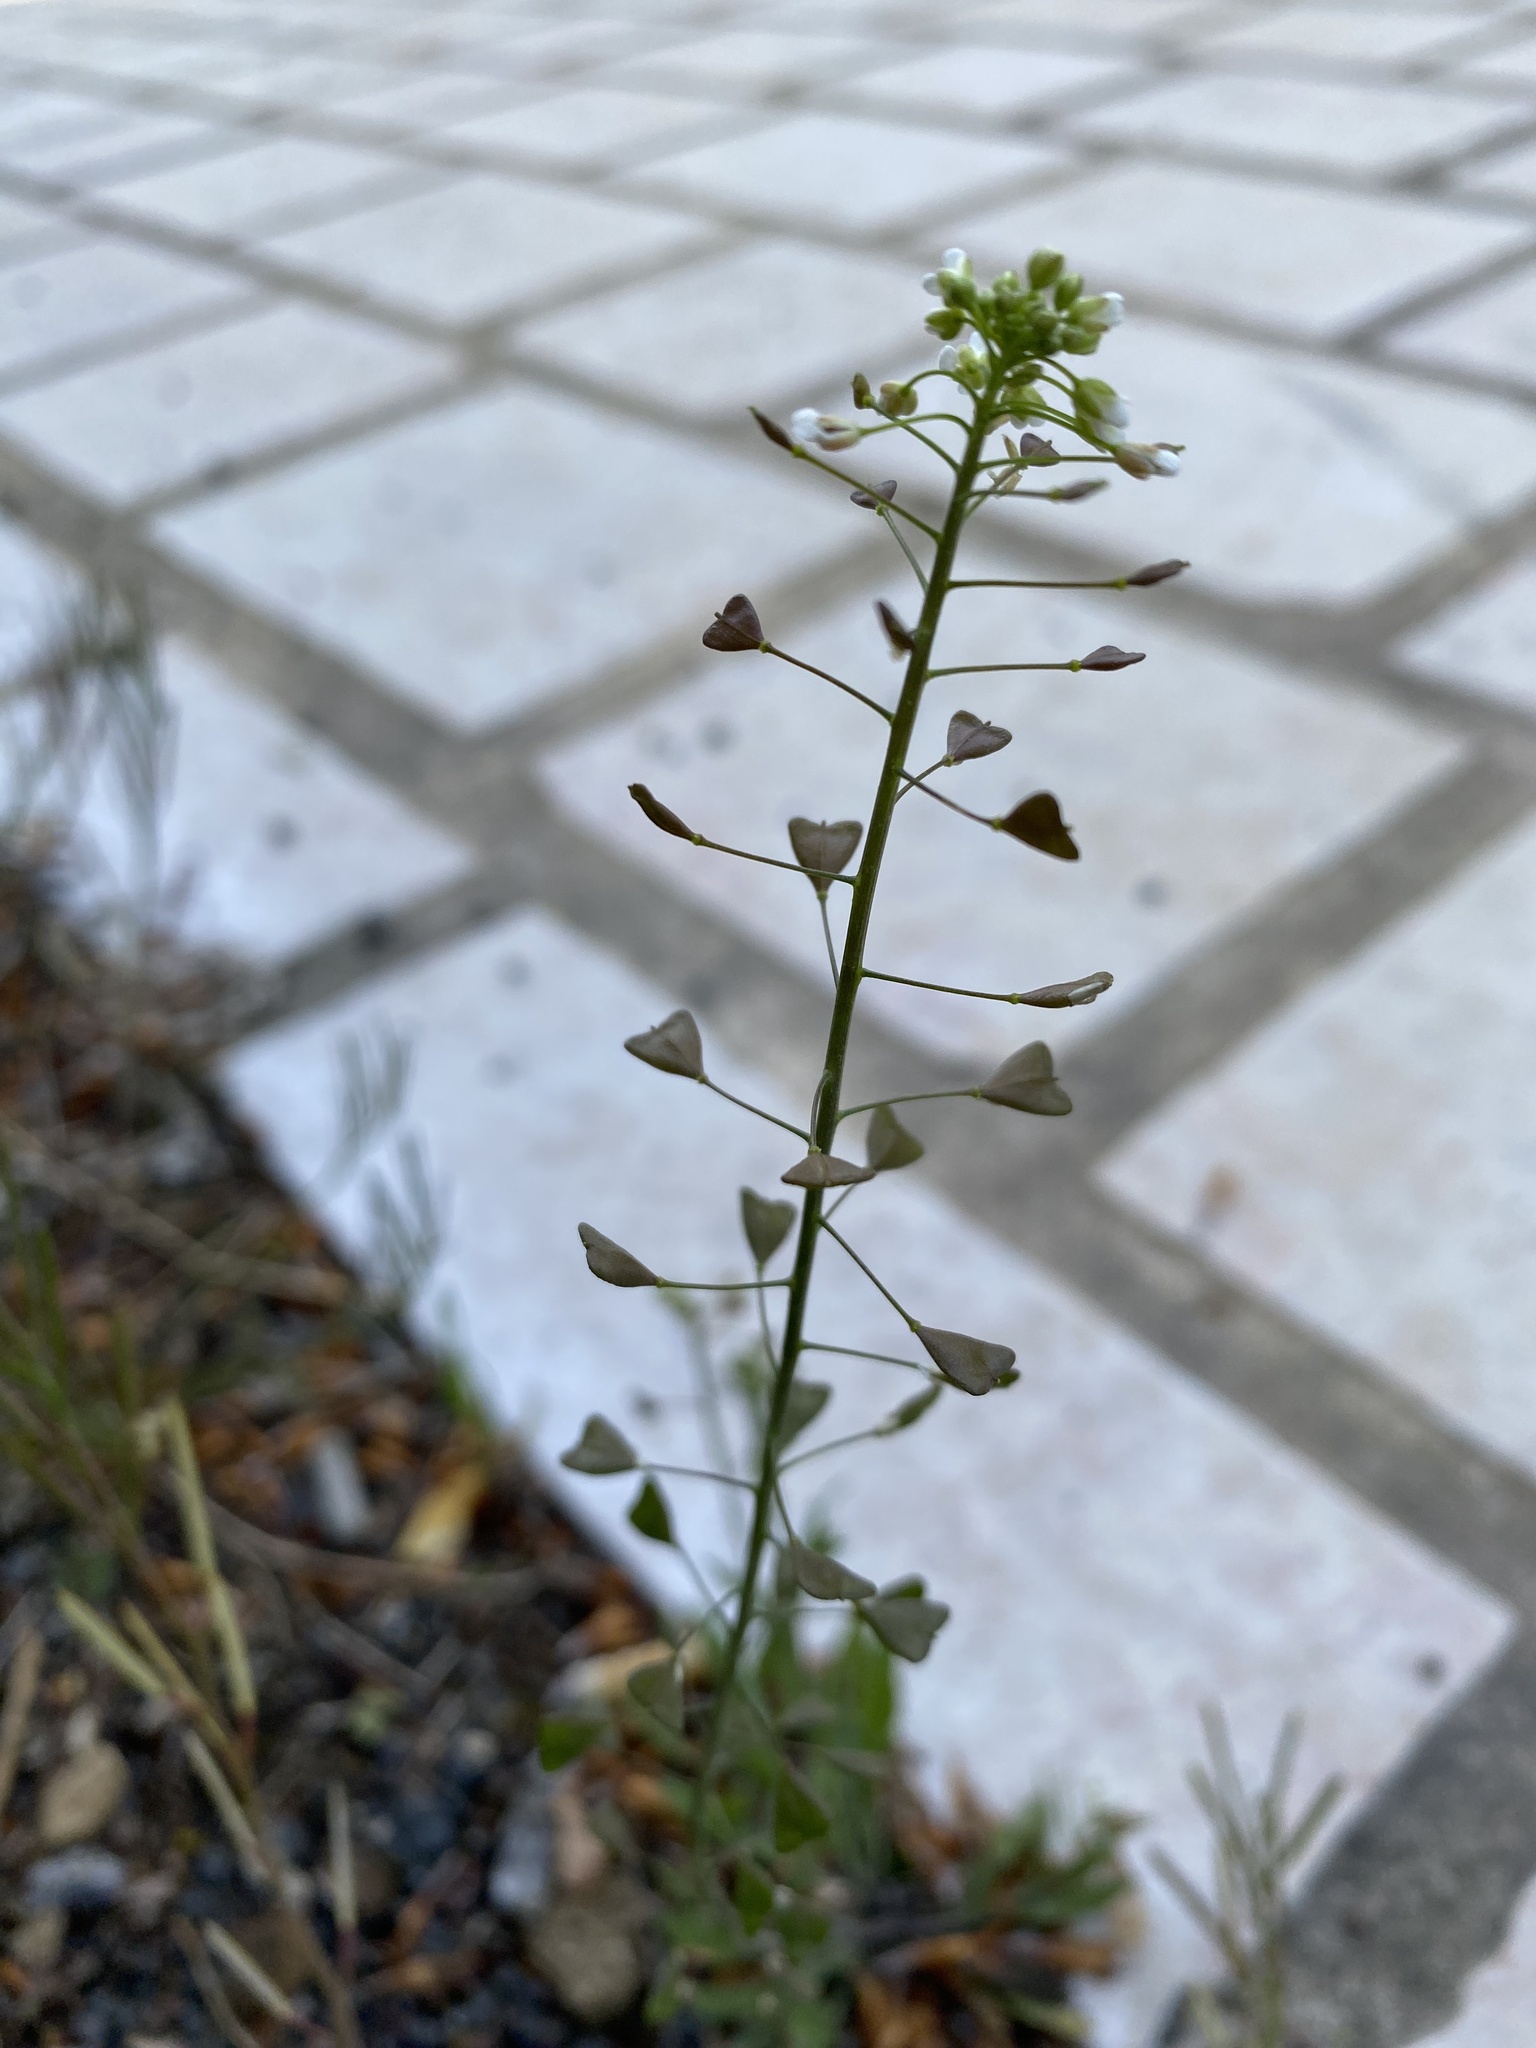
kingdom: Plantae
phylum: Tracheophyta
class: Magnoliopsida
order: Brassicales
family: Brassicaceae
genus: Capsella
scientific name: Capsella bursa-pastoris
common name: Shepherd's purse
